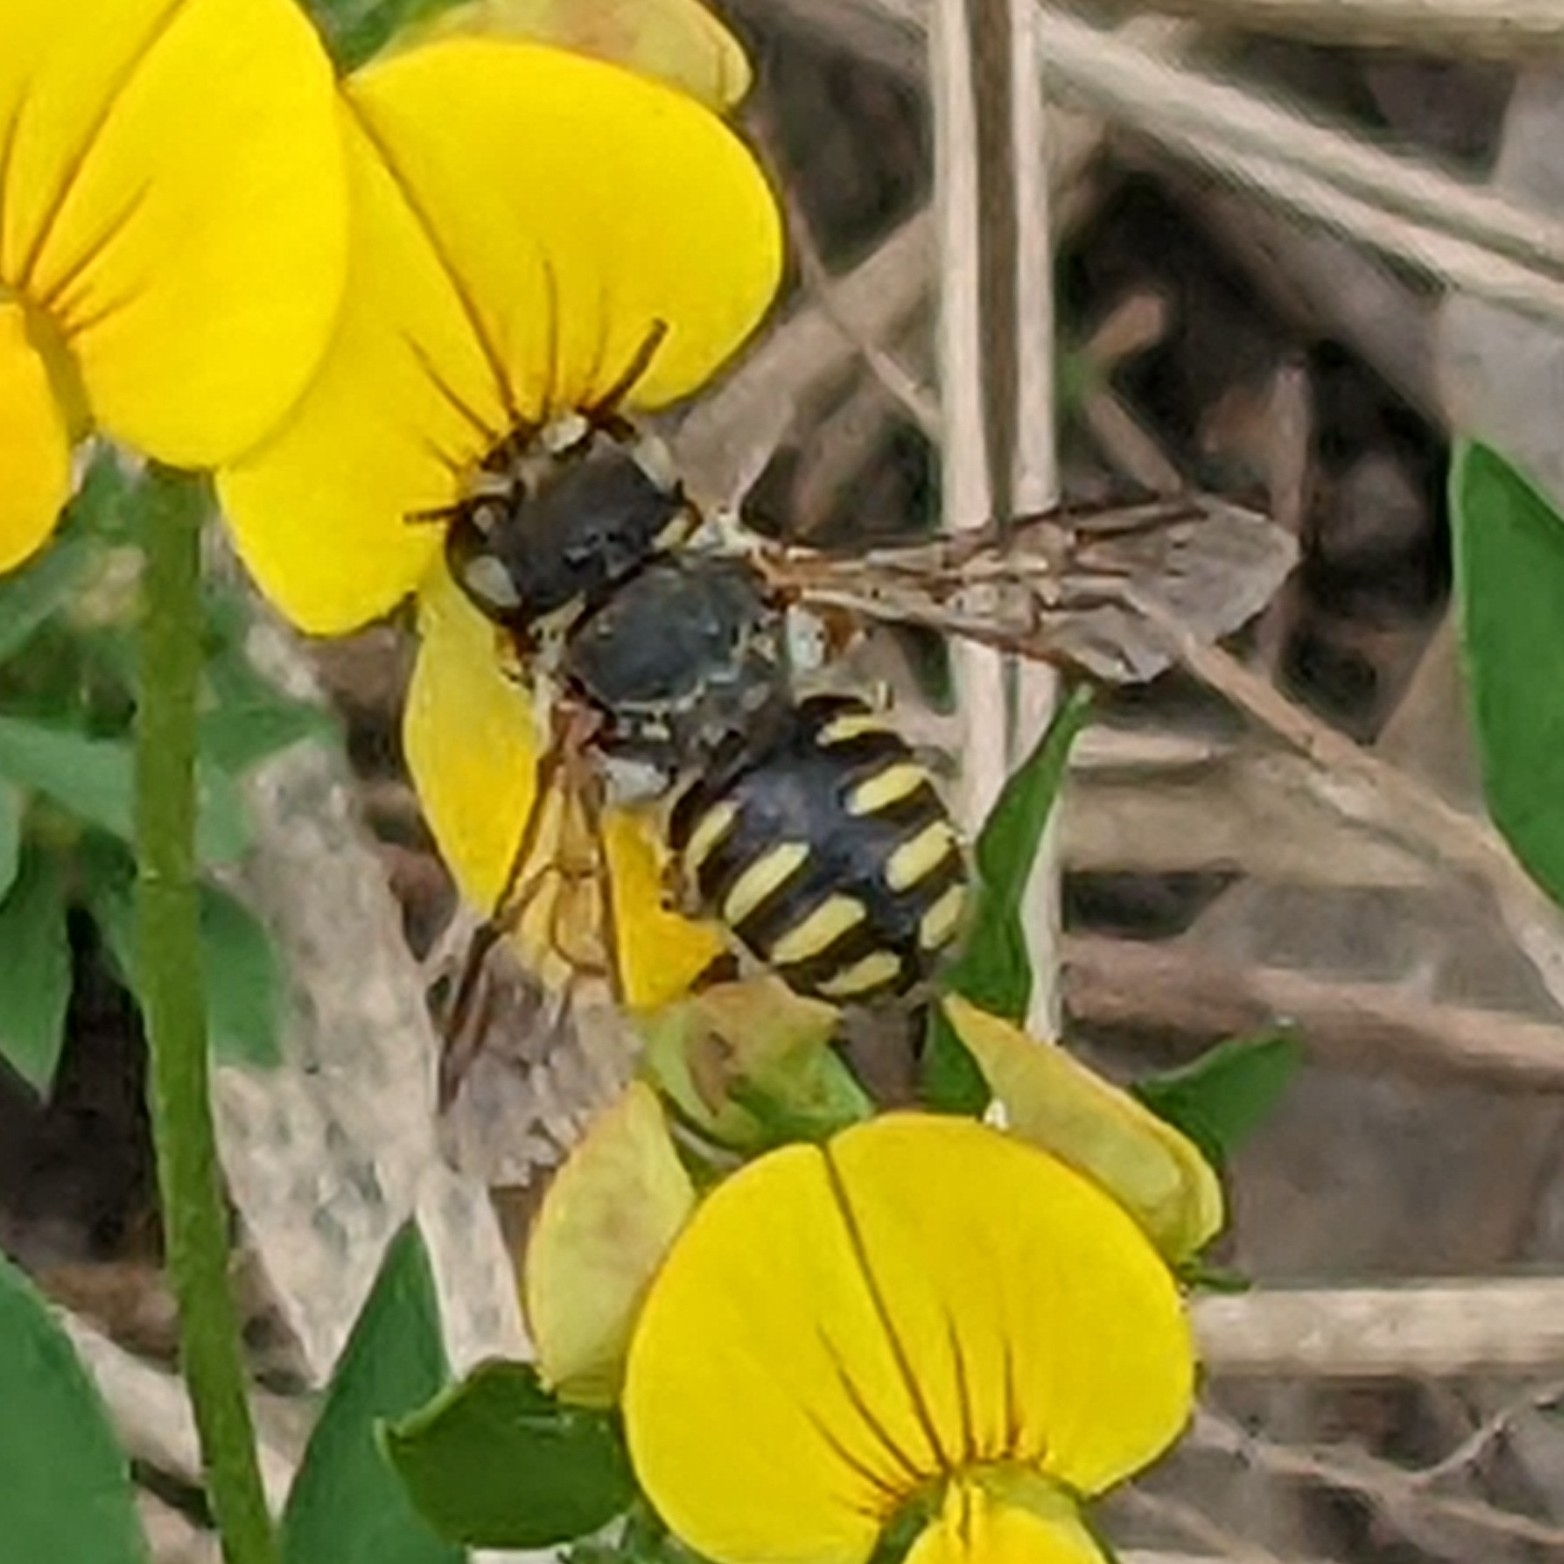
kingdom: Animalia
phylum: Arthropoda
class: Insecta
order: Hymenoptera
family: Megachilidae
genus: Anthidium
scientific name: Anthidium oblongatum
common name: Oblong wool carder bee
